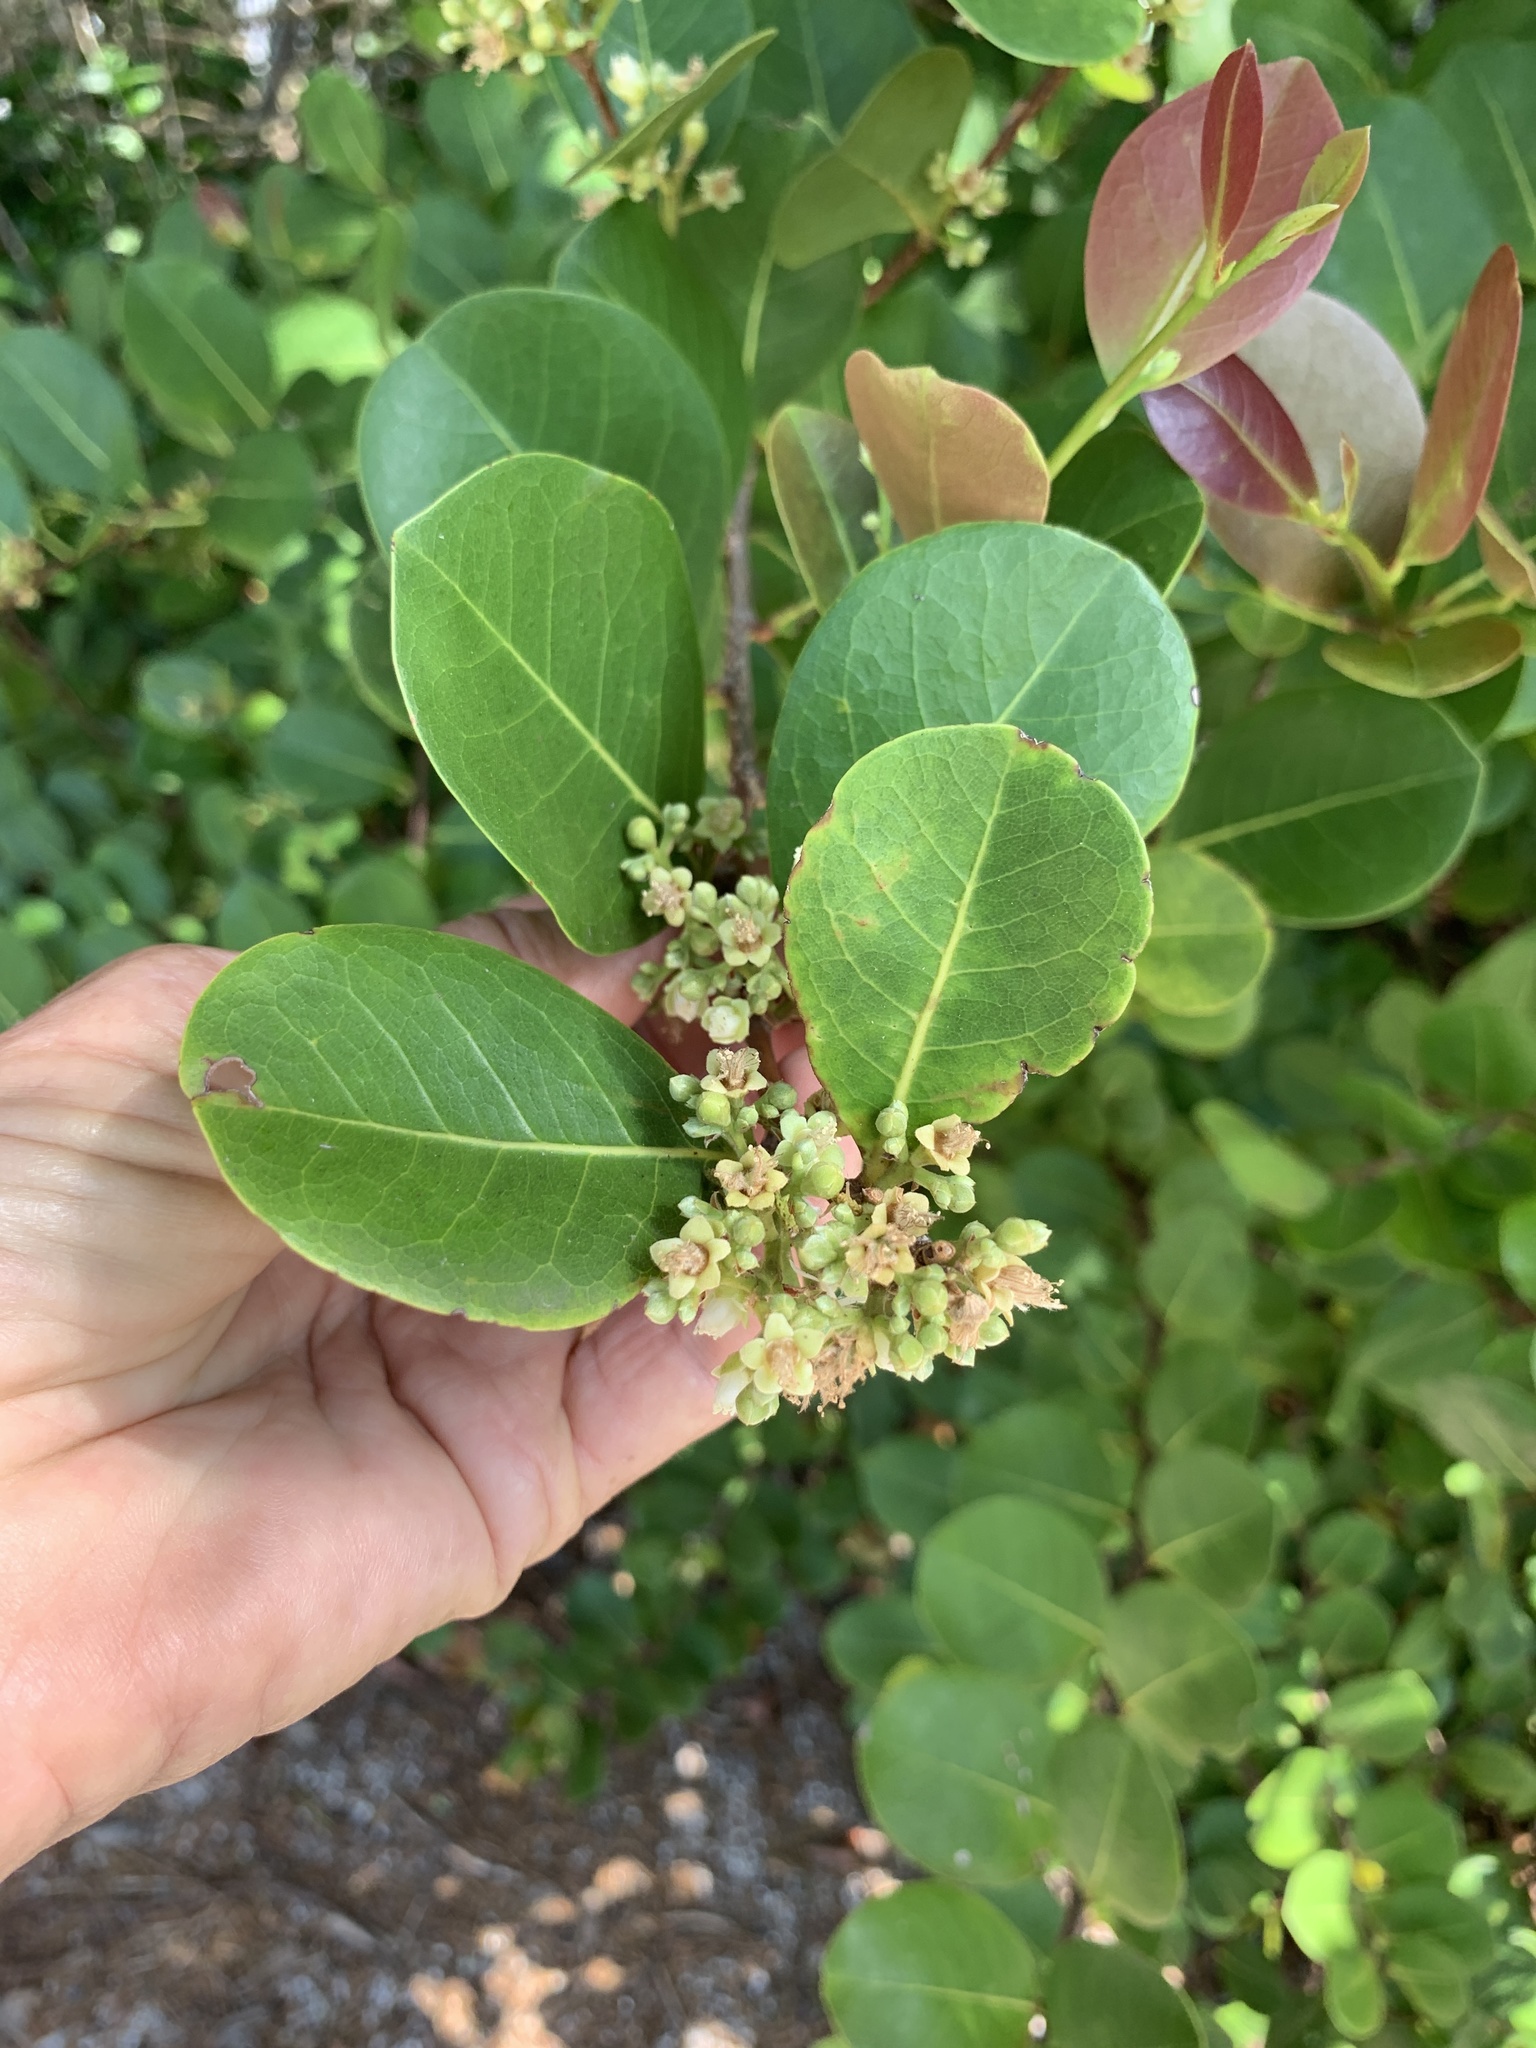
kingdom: Plantae
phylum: Tracheophyta
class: Magnoliopsida
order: Malpighiales
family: Chrysobalanaceae
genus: Chrysobalanus
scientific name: Chrysobalanus icaco
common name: Coco plum
